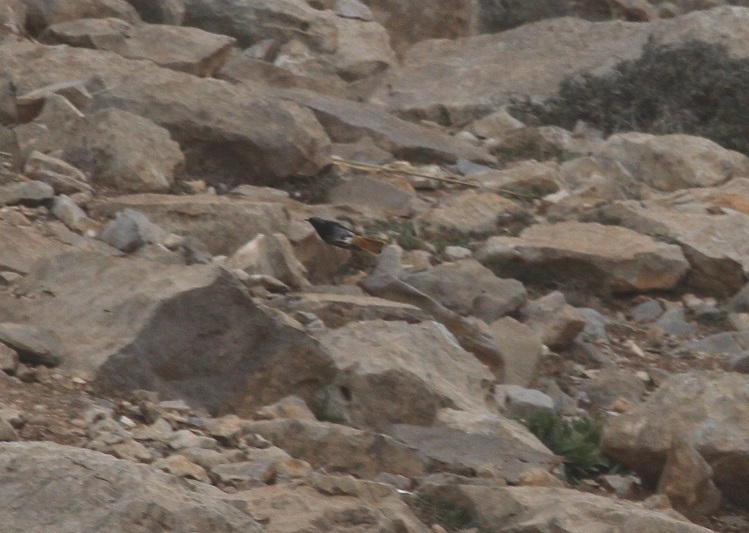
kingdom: Animalia
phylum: Chordata
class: Aves
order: Passeriformes
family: Muscicapidae
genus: Phoenicurus
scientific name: Phoenicurus ochruros
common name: Black redstart
